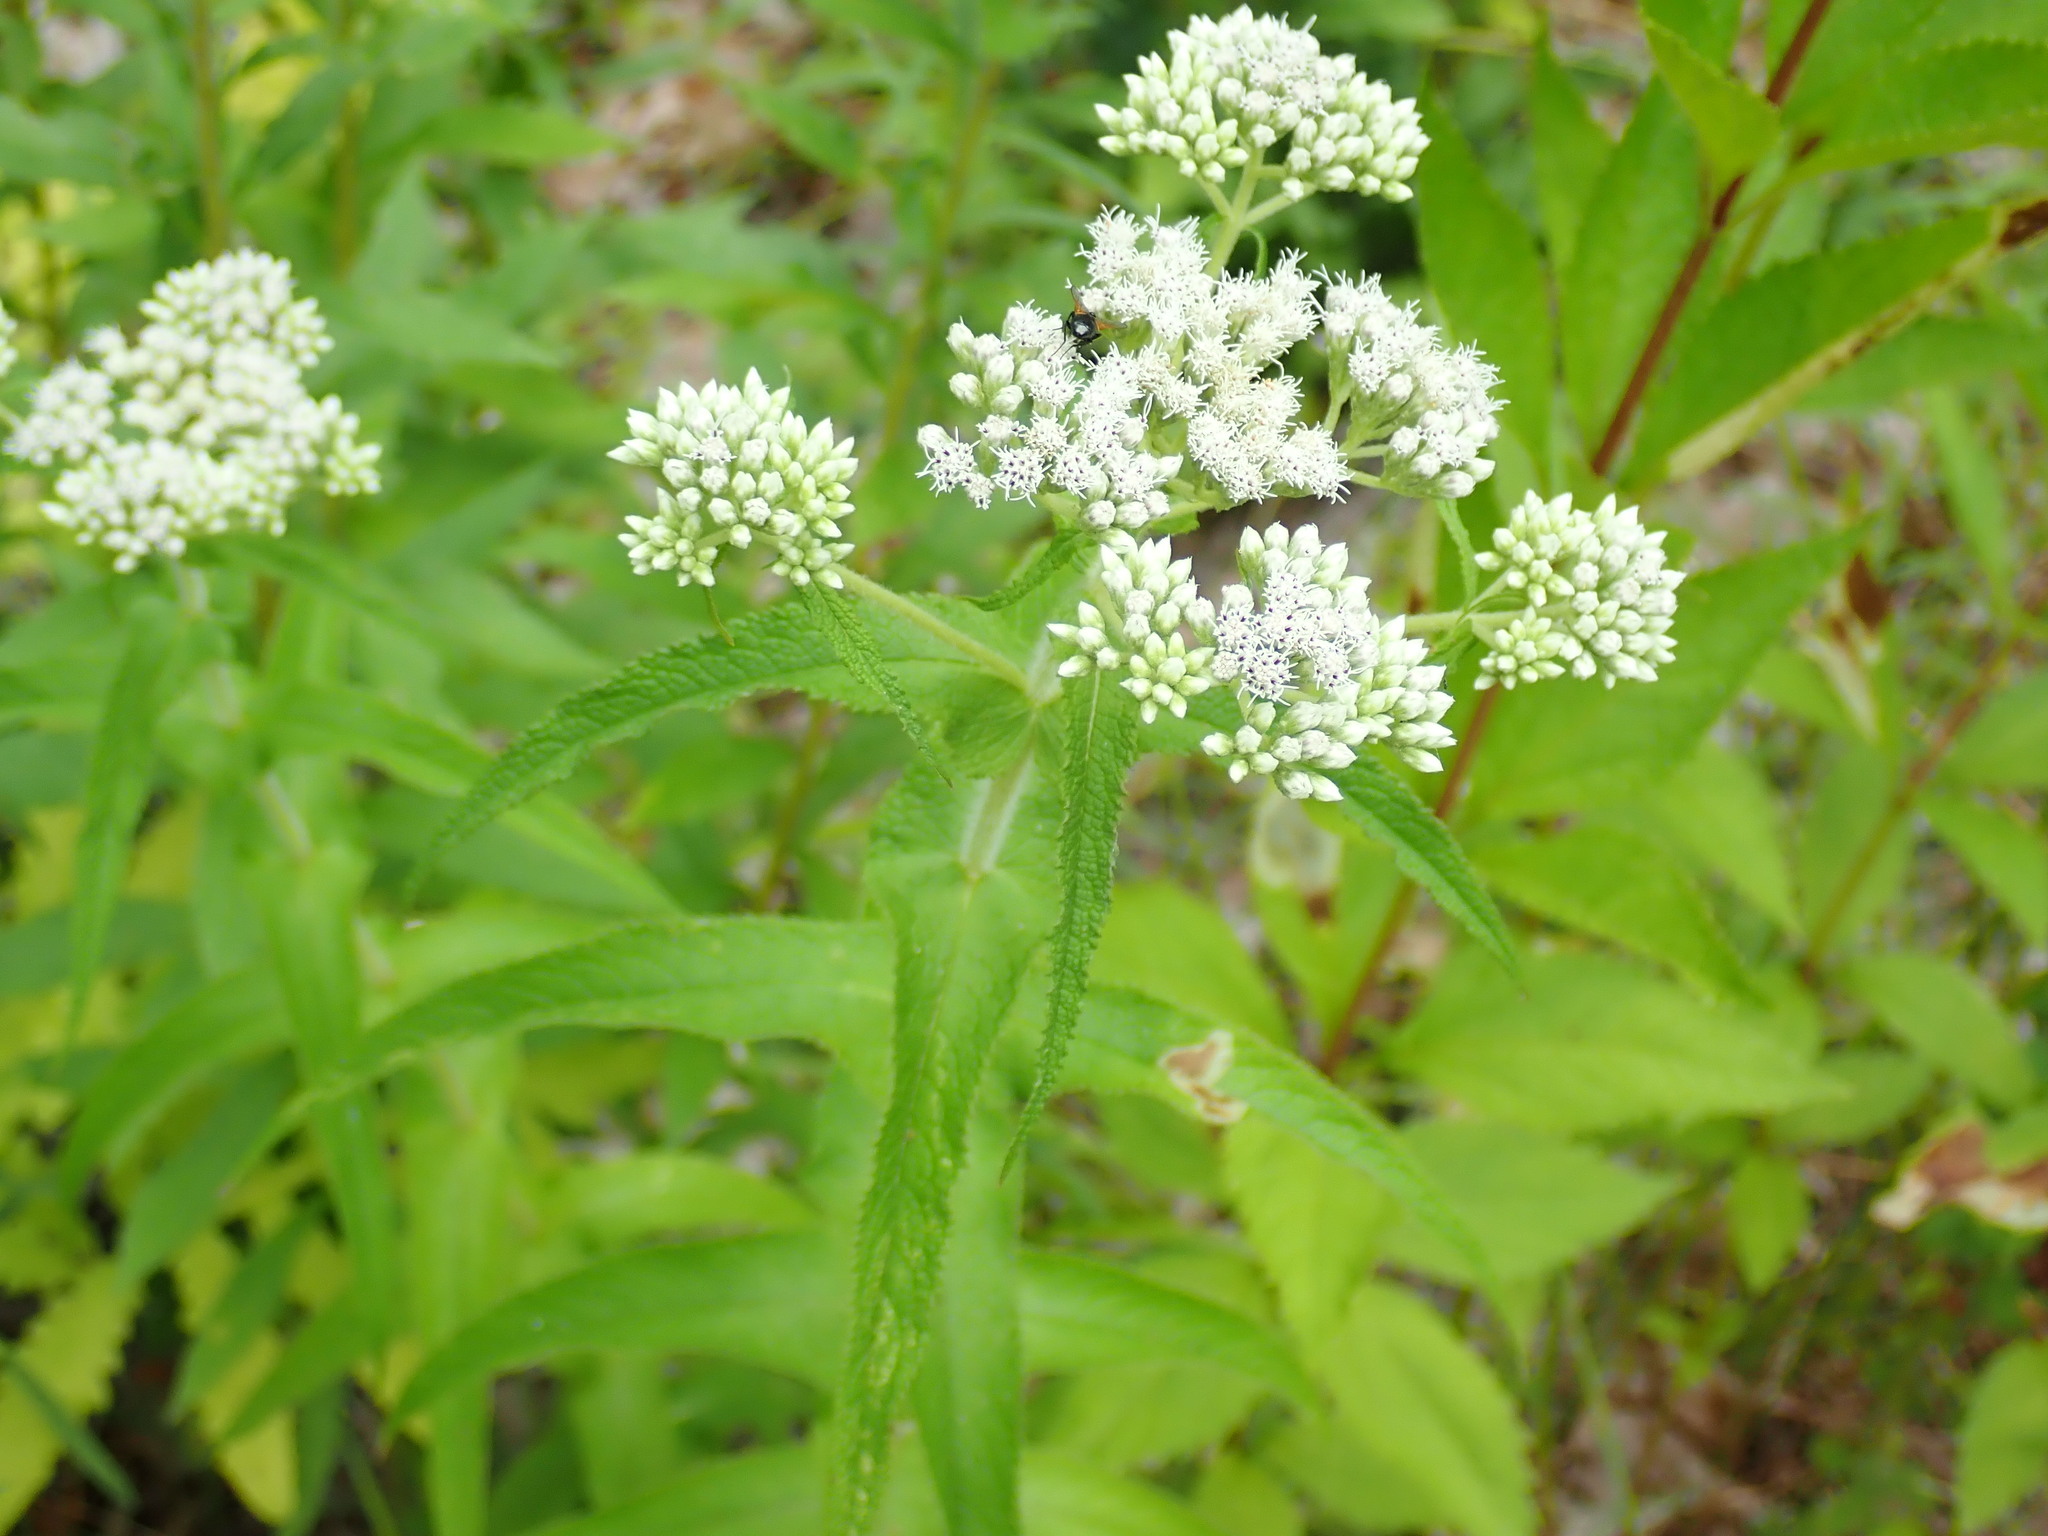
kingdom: Plantae
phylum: Tracheophyta
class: Magnoliopsida
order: Asterales
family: Asteraceae
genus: Eupatorium
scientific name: Eupatorium perfoliatum
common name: Boneset
